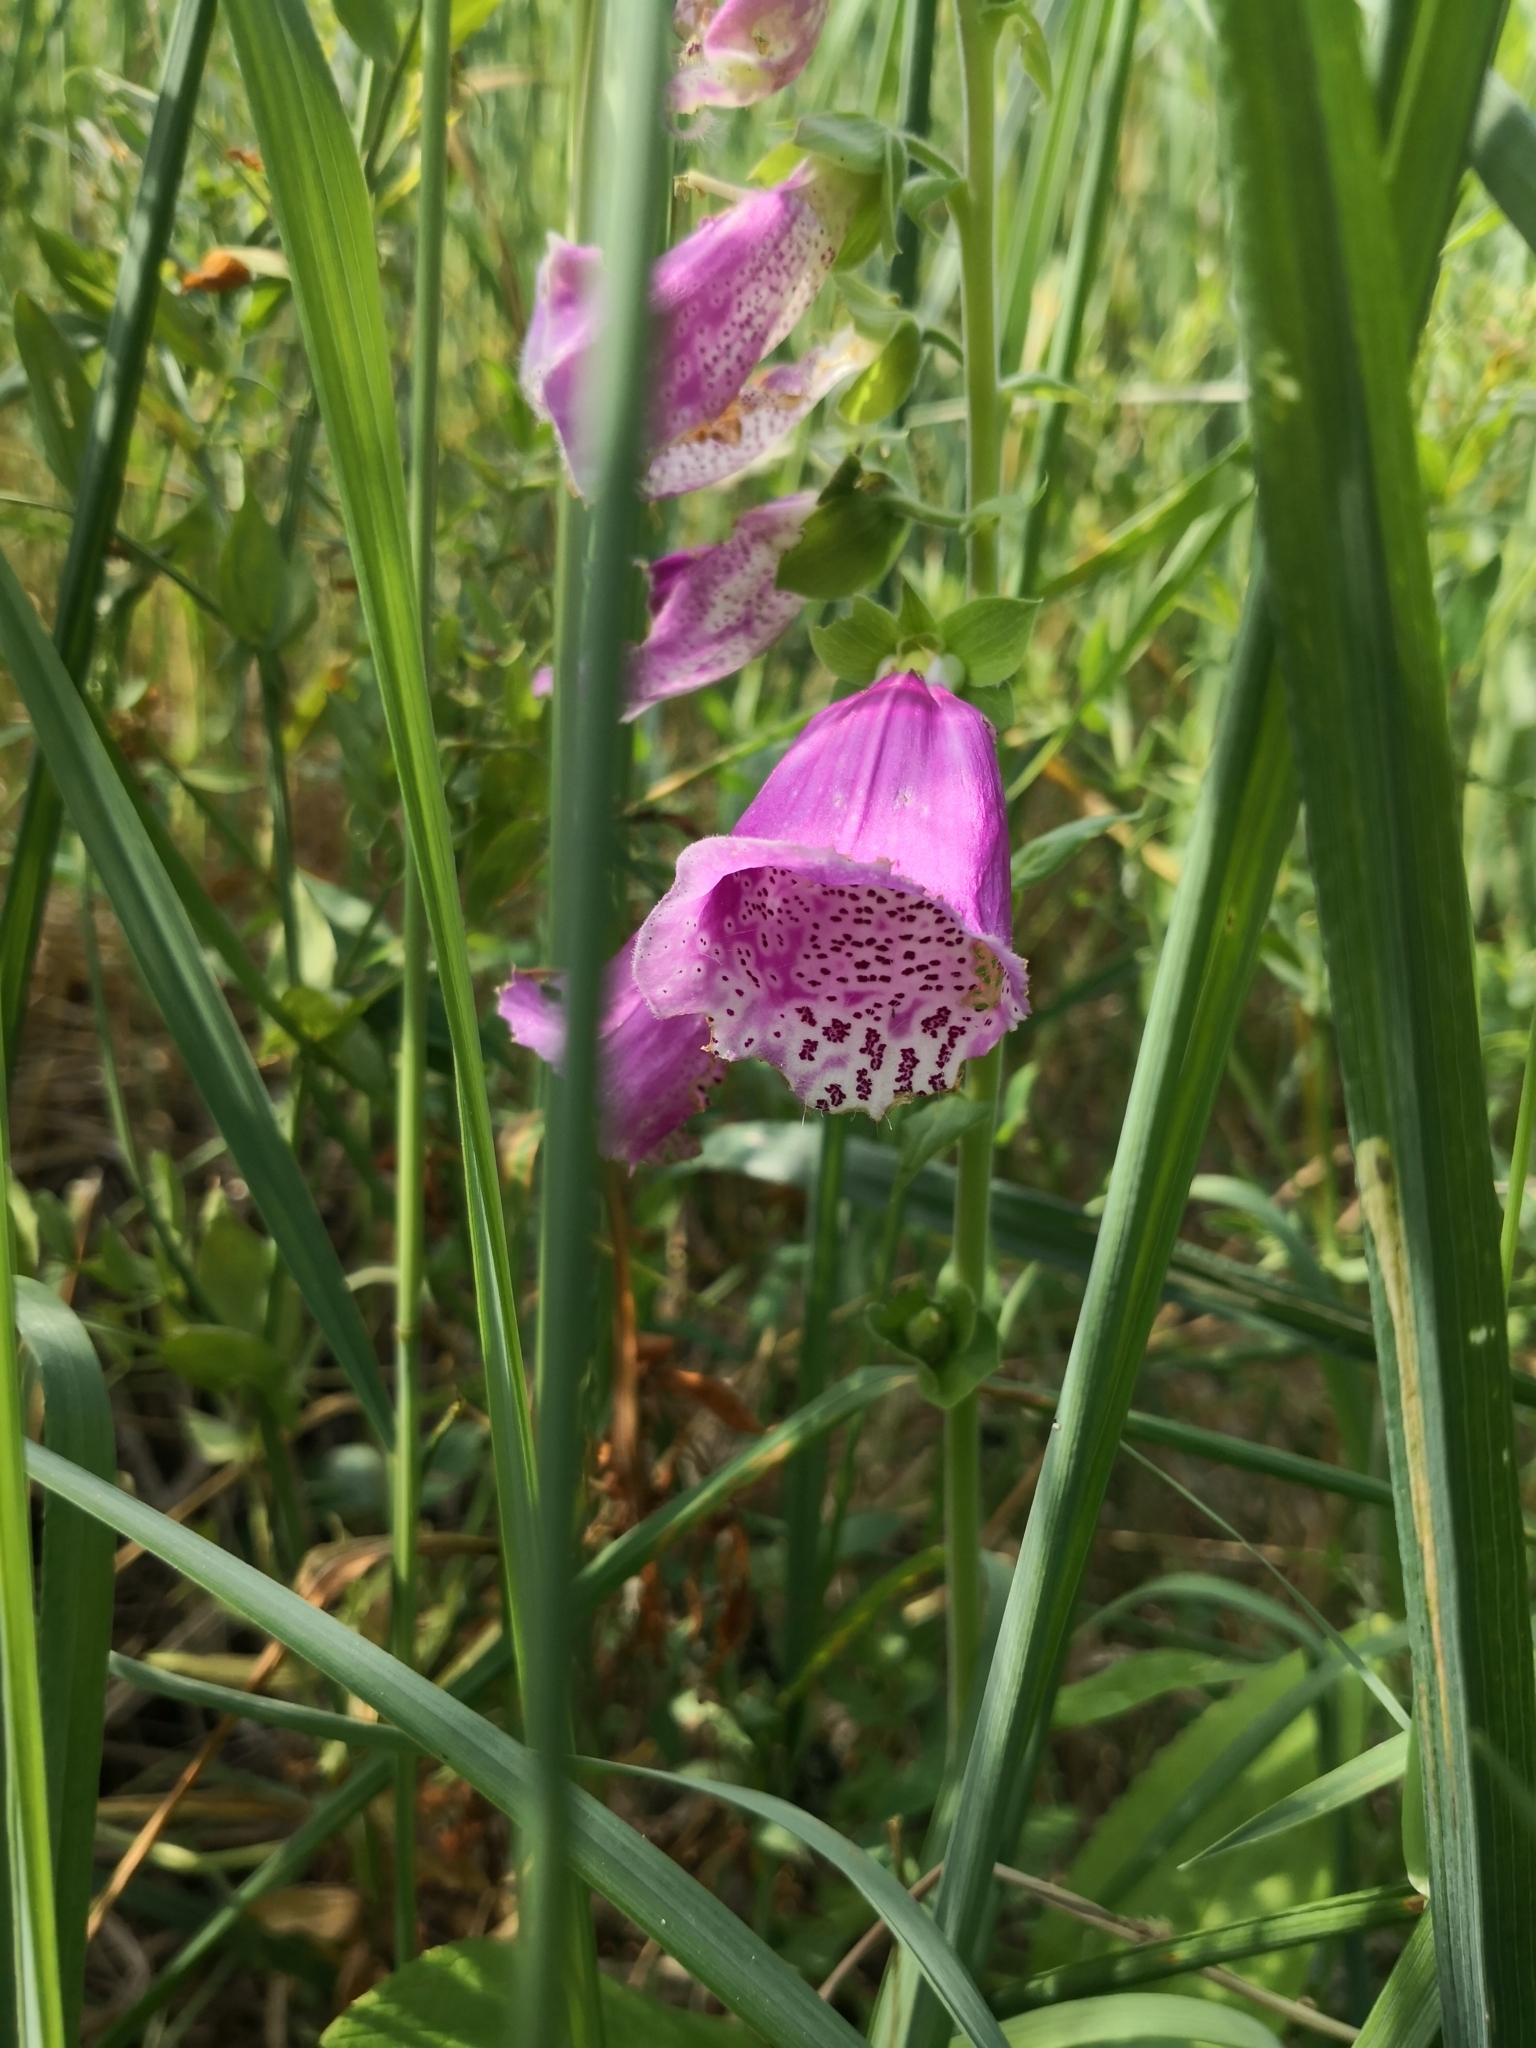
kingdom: Plantae
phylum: Tracheophyta
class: Magnoliopsida
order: Lamiales
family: Plantaginaceae
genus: Digitalis
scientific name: Digitalis purpurea
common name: Foxglove
